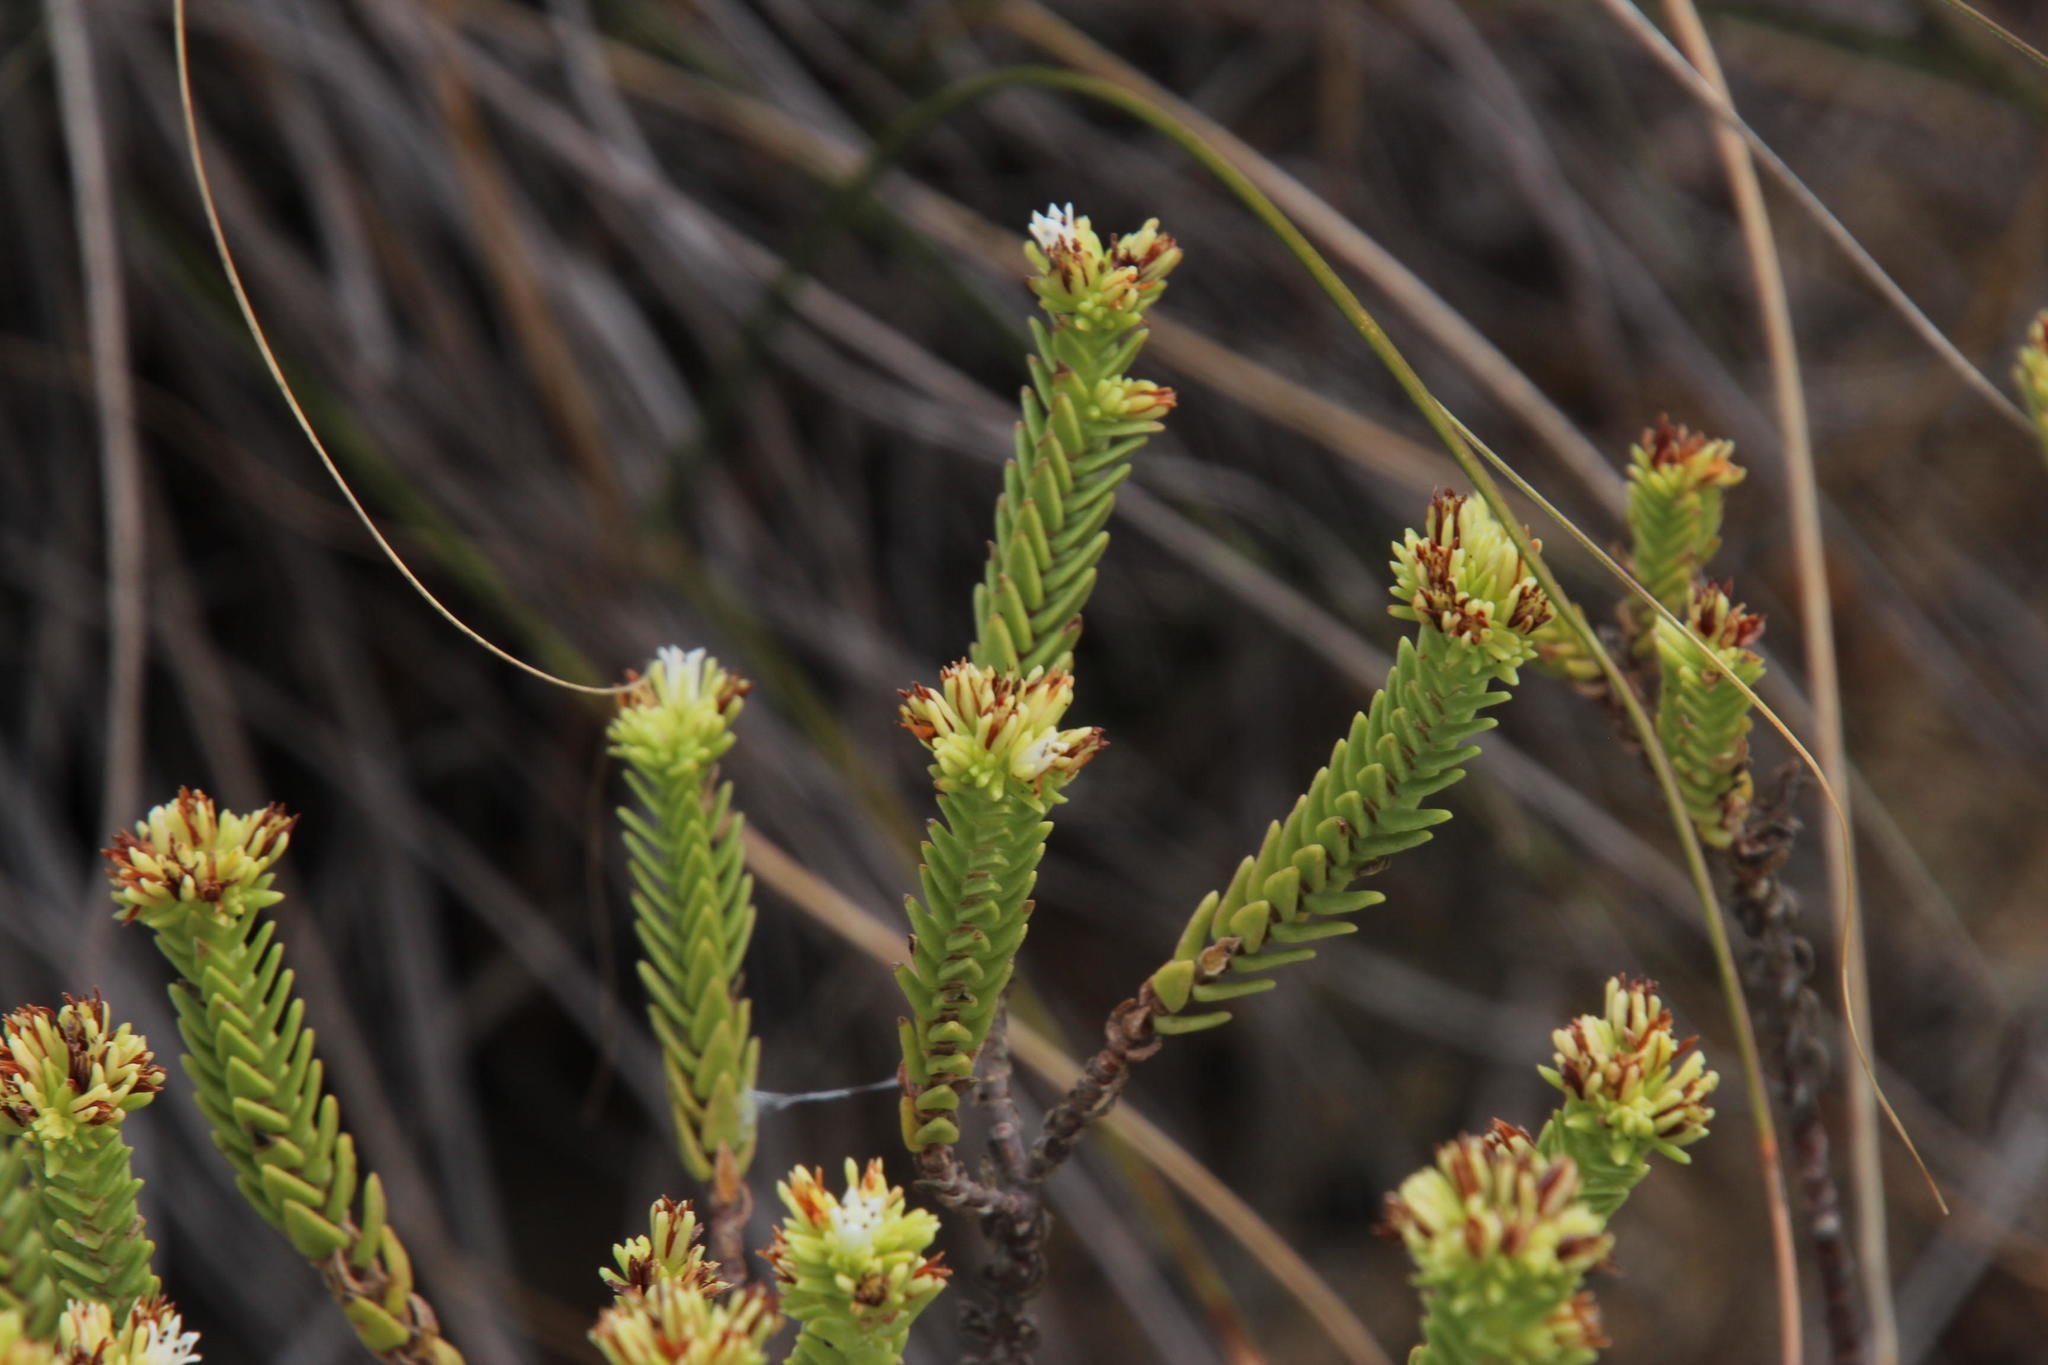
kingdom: Plantae
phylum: Tracheophyta
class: Magnoliopsida
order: Saxifragales
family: Crassulaceae
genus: Crassula
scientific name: Crassula ericoides
